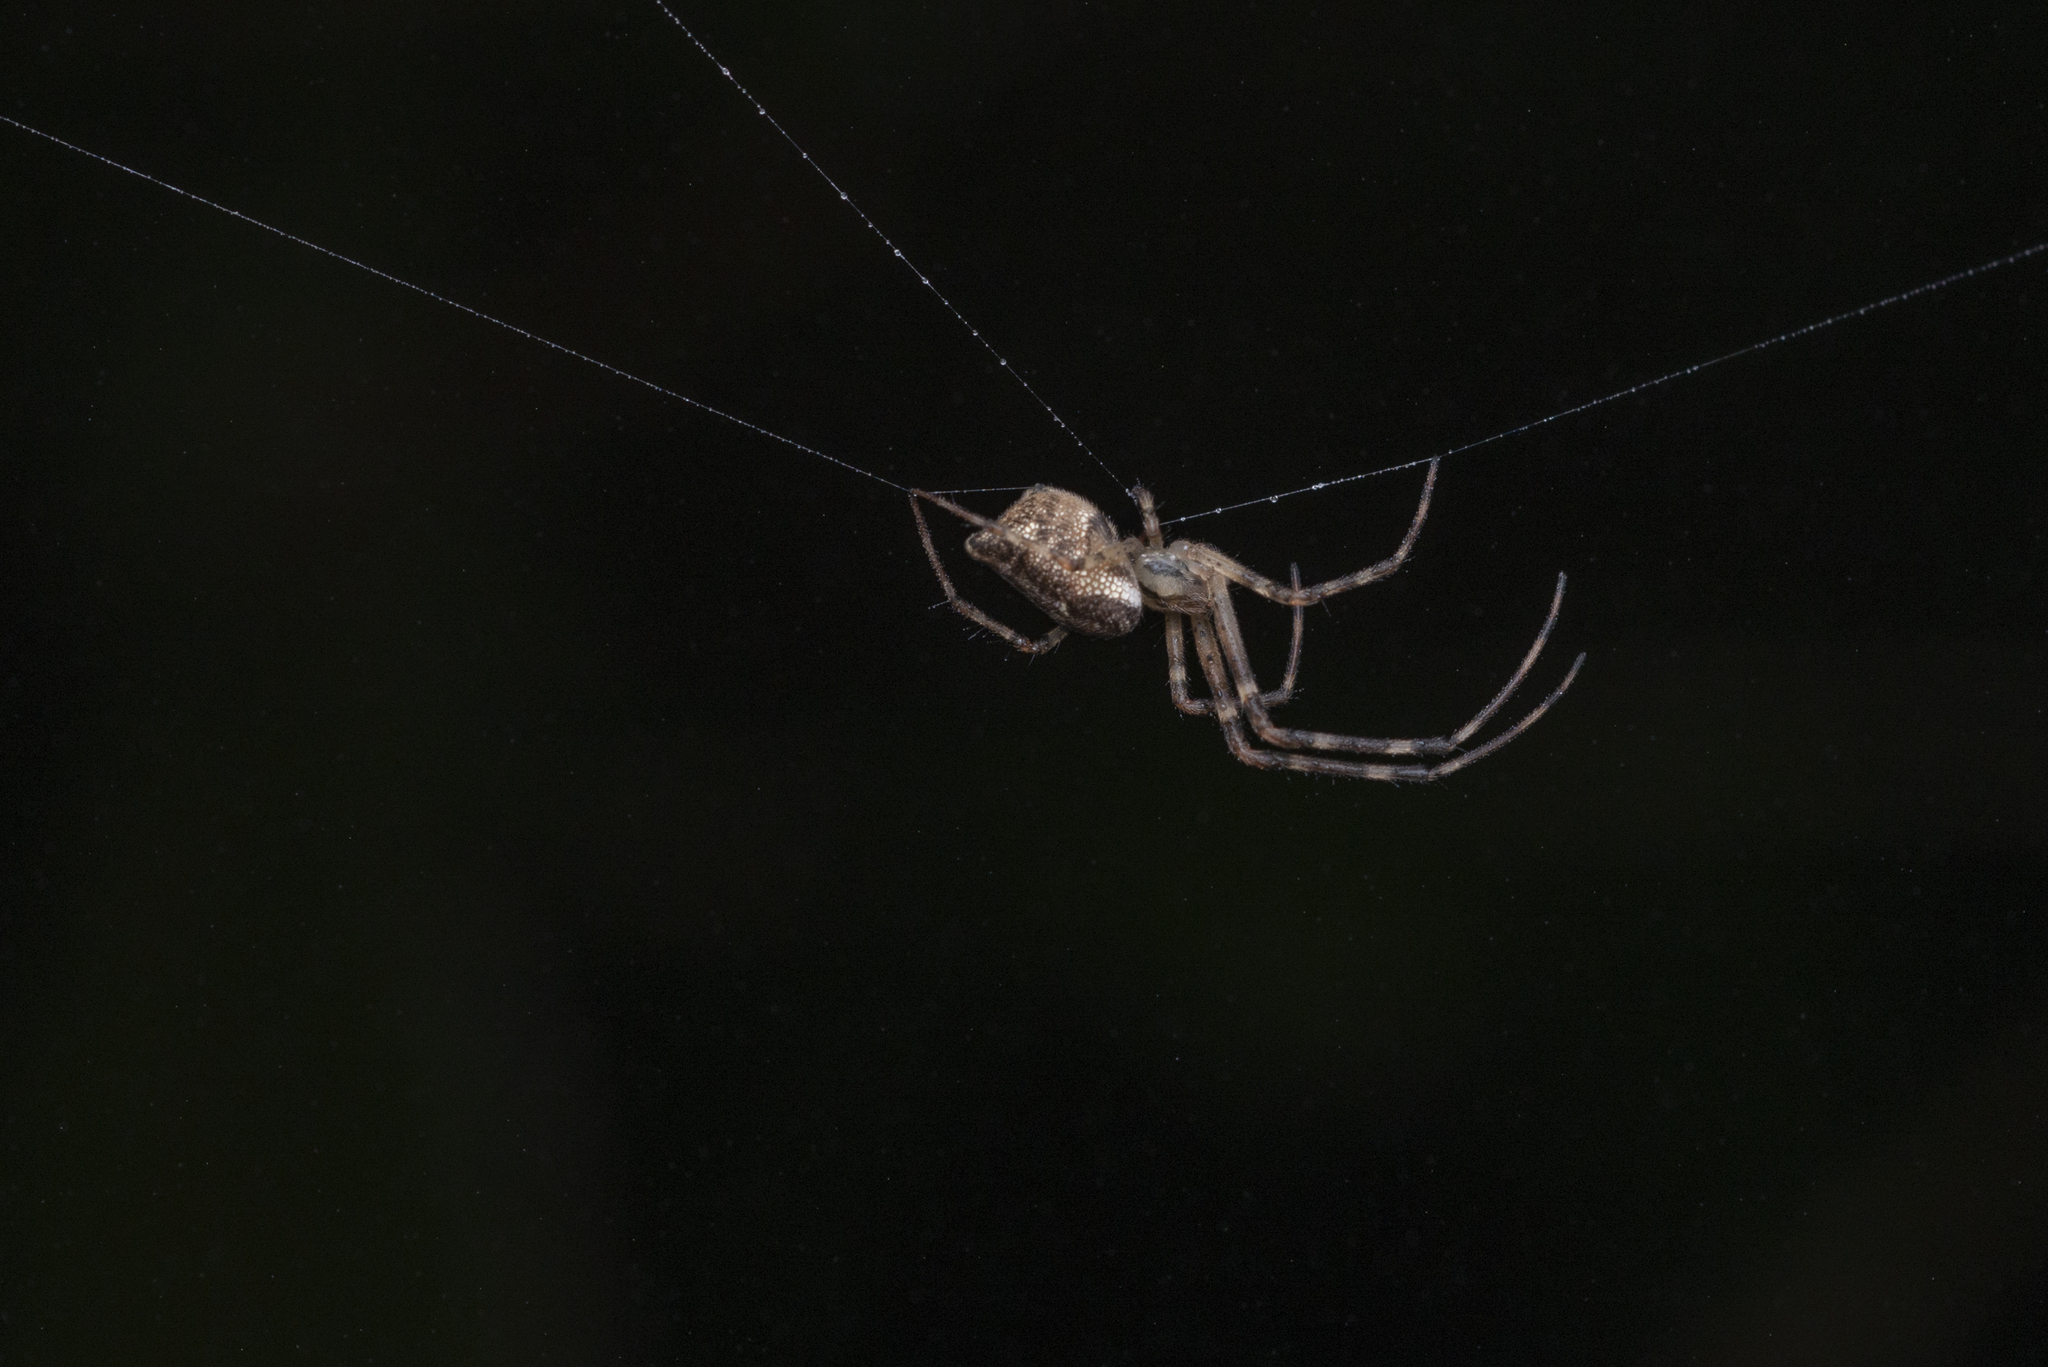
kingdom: Animalia
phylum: Arthropoda
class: Arachnida
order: Araneae
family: Tetragnathidae
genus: Tylorida
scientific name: Tylorida ventralis
